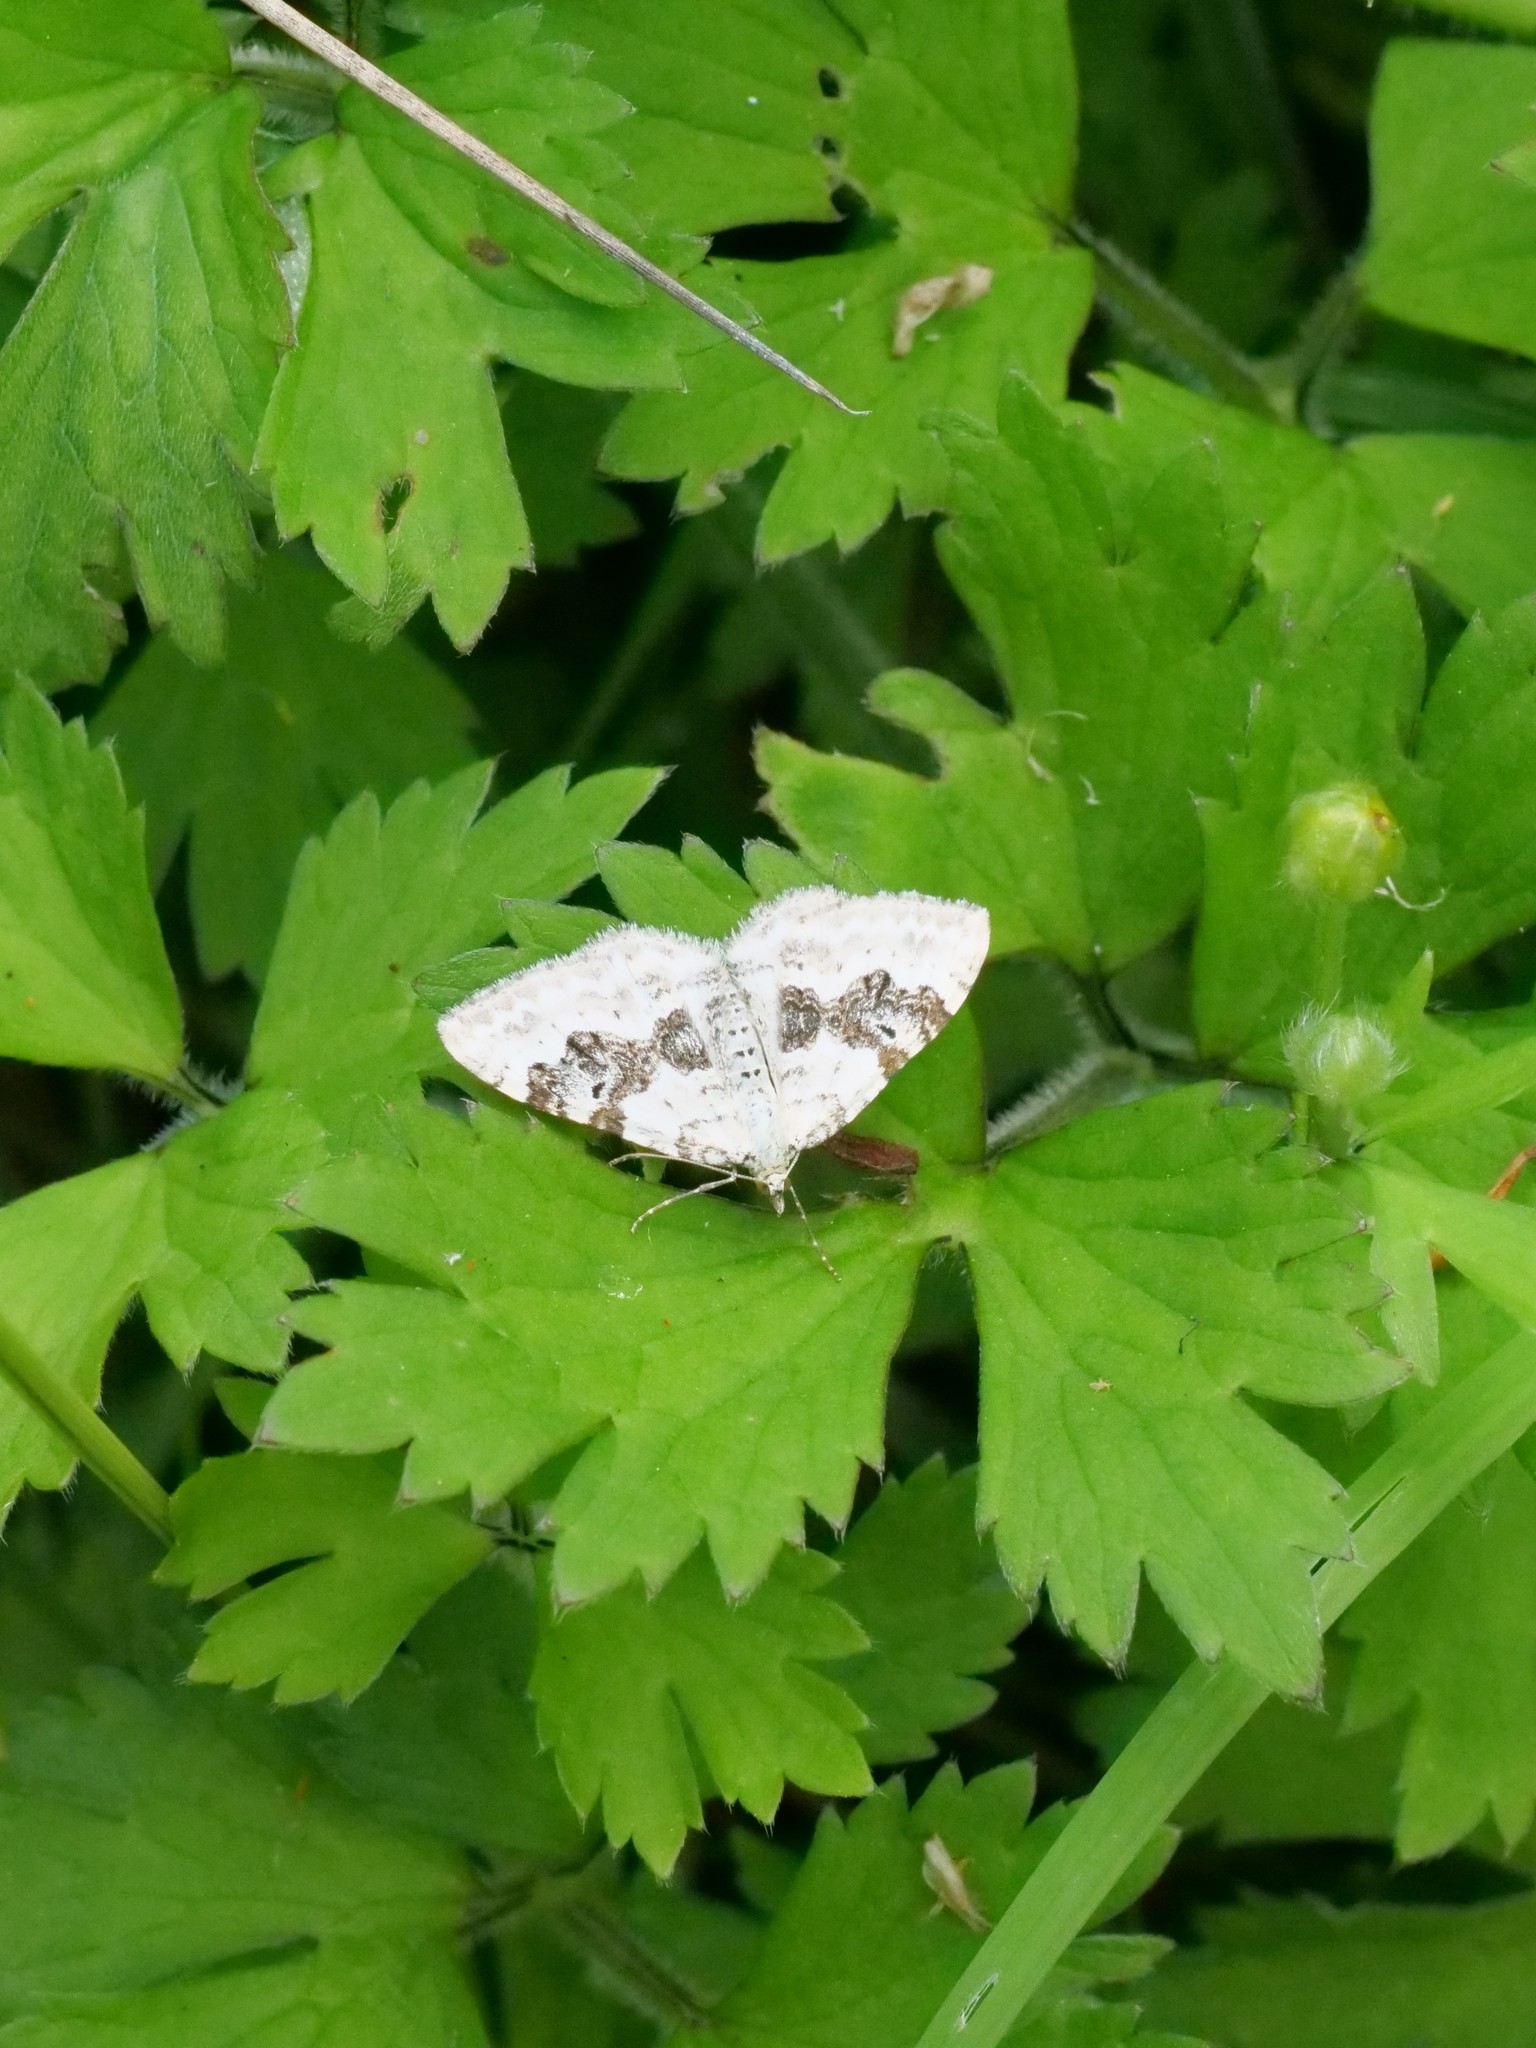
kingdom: Animalia
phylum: Arthropoda
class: Insecta
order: Lepidoptera
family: Geometridae
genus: Xanthorhoe
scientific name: Xanthorhoe montanata
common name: Silver-ground carpet
